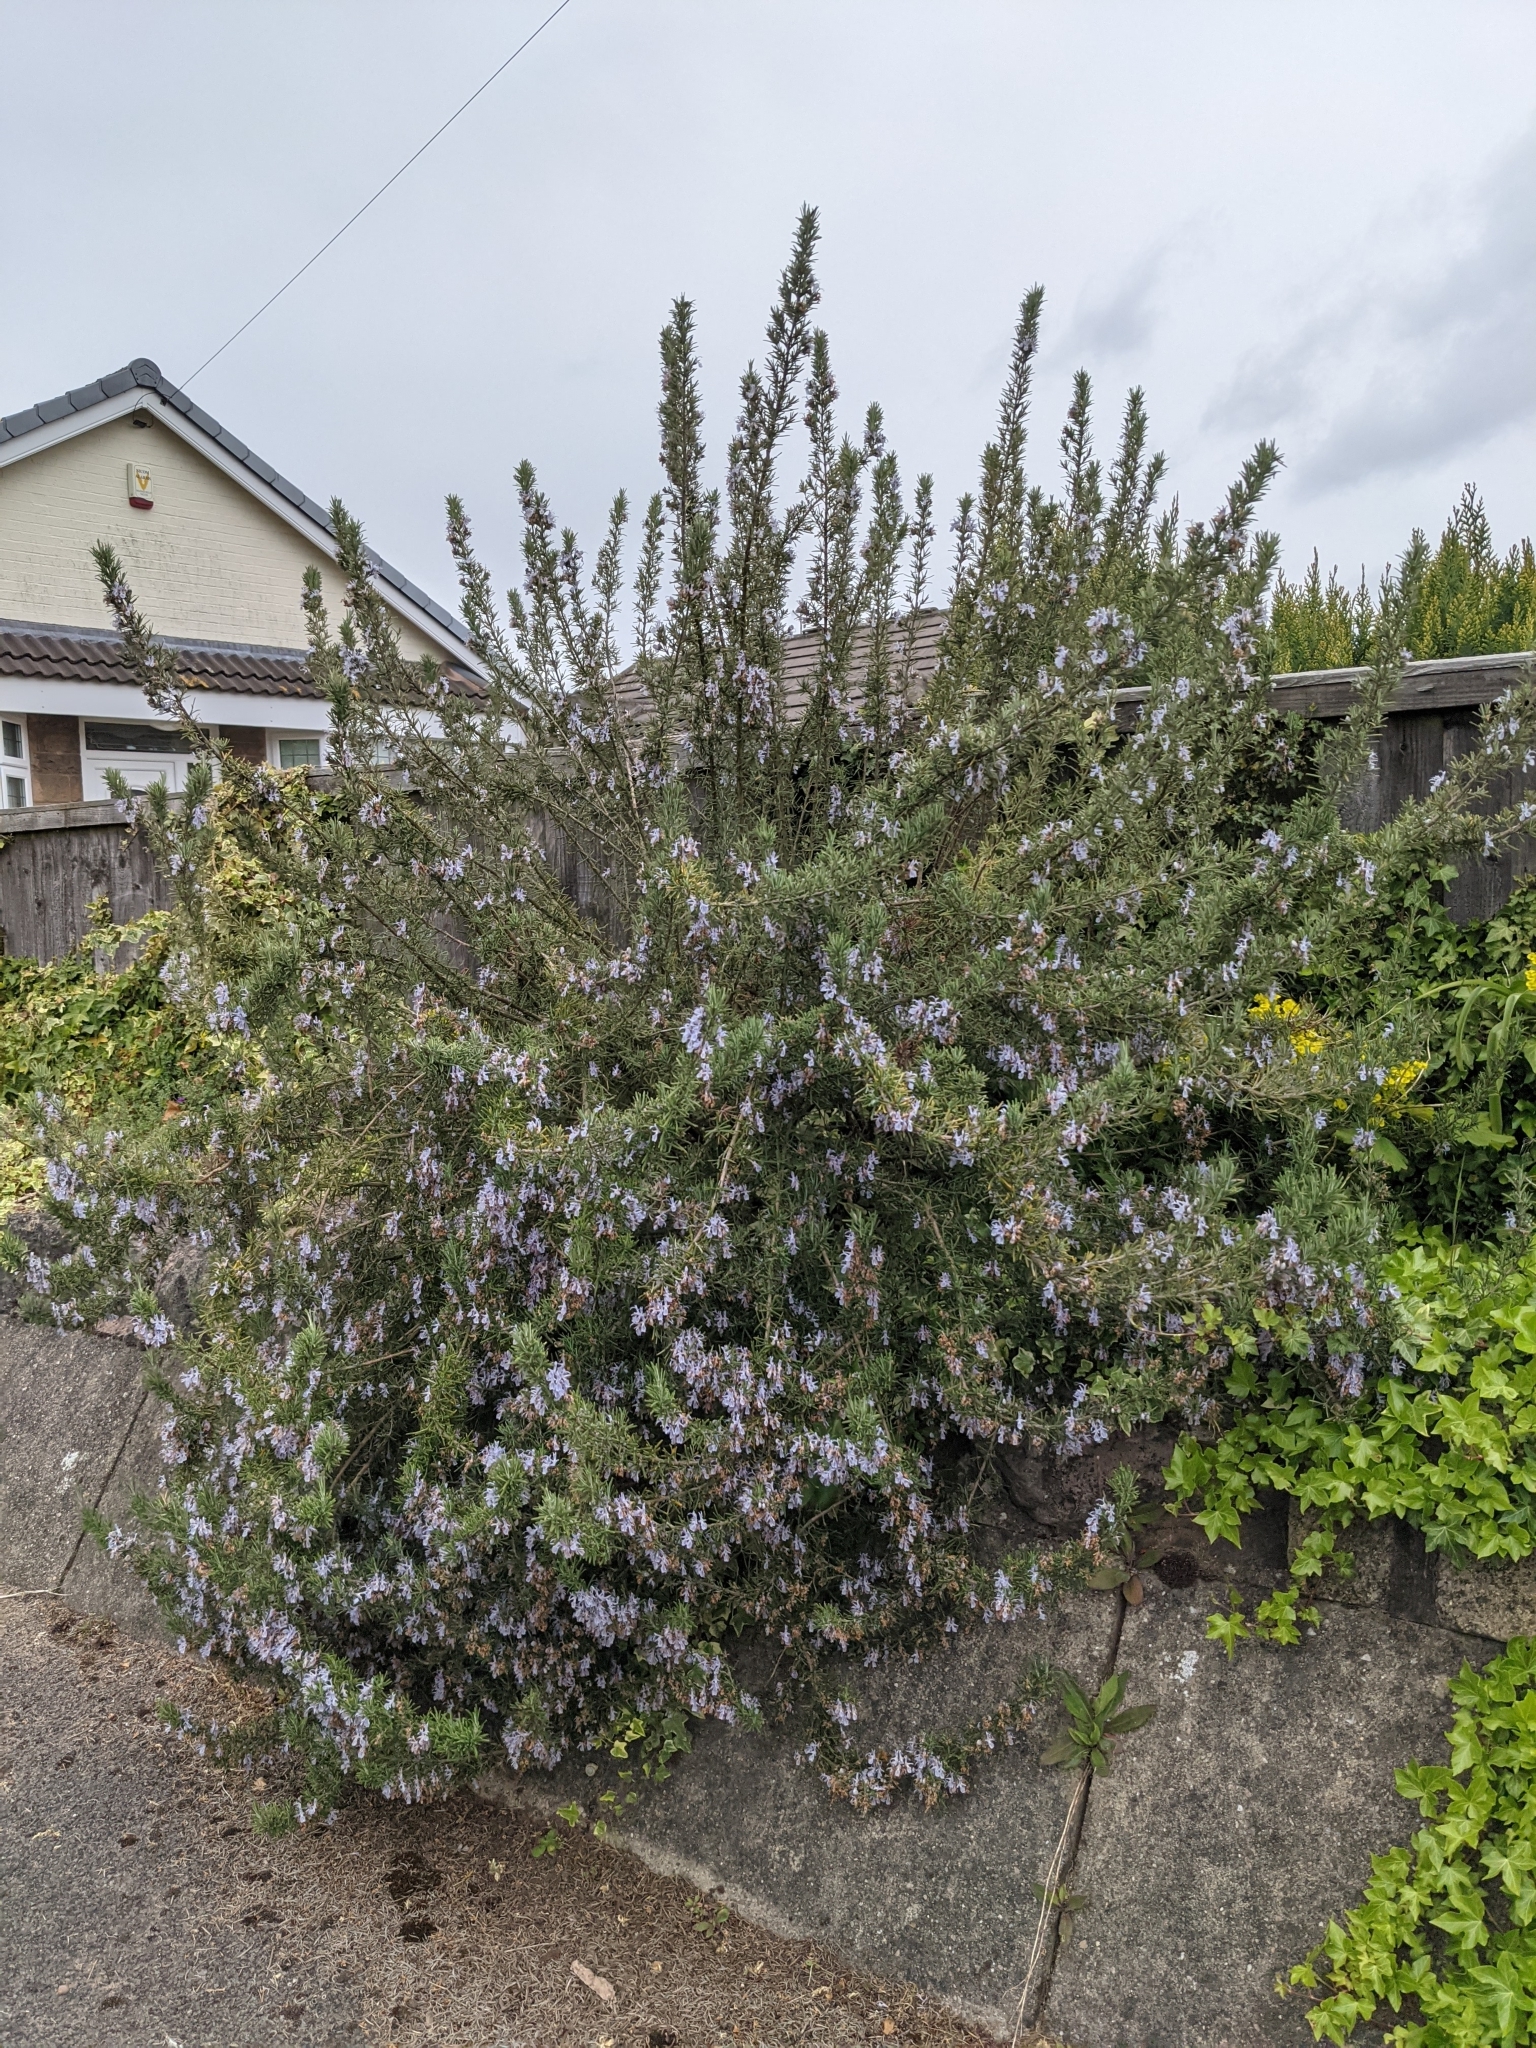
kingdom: Plantae
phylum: Tracheophyta
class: Magnoliopsida
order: Lamiales
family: Lamiaceae
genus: Salvia
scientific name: Salvia rosmarinus
